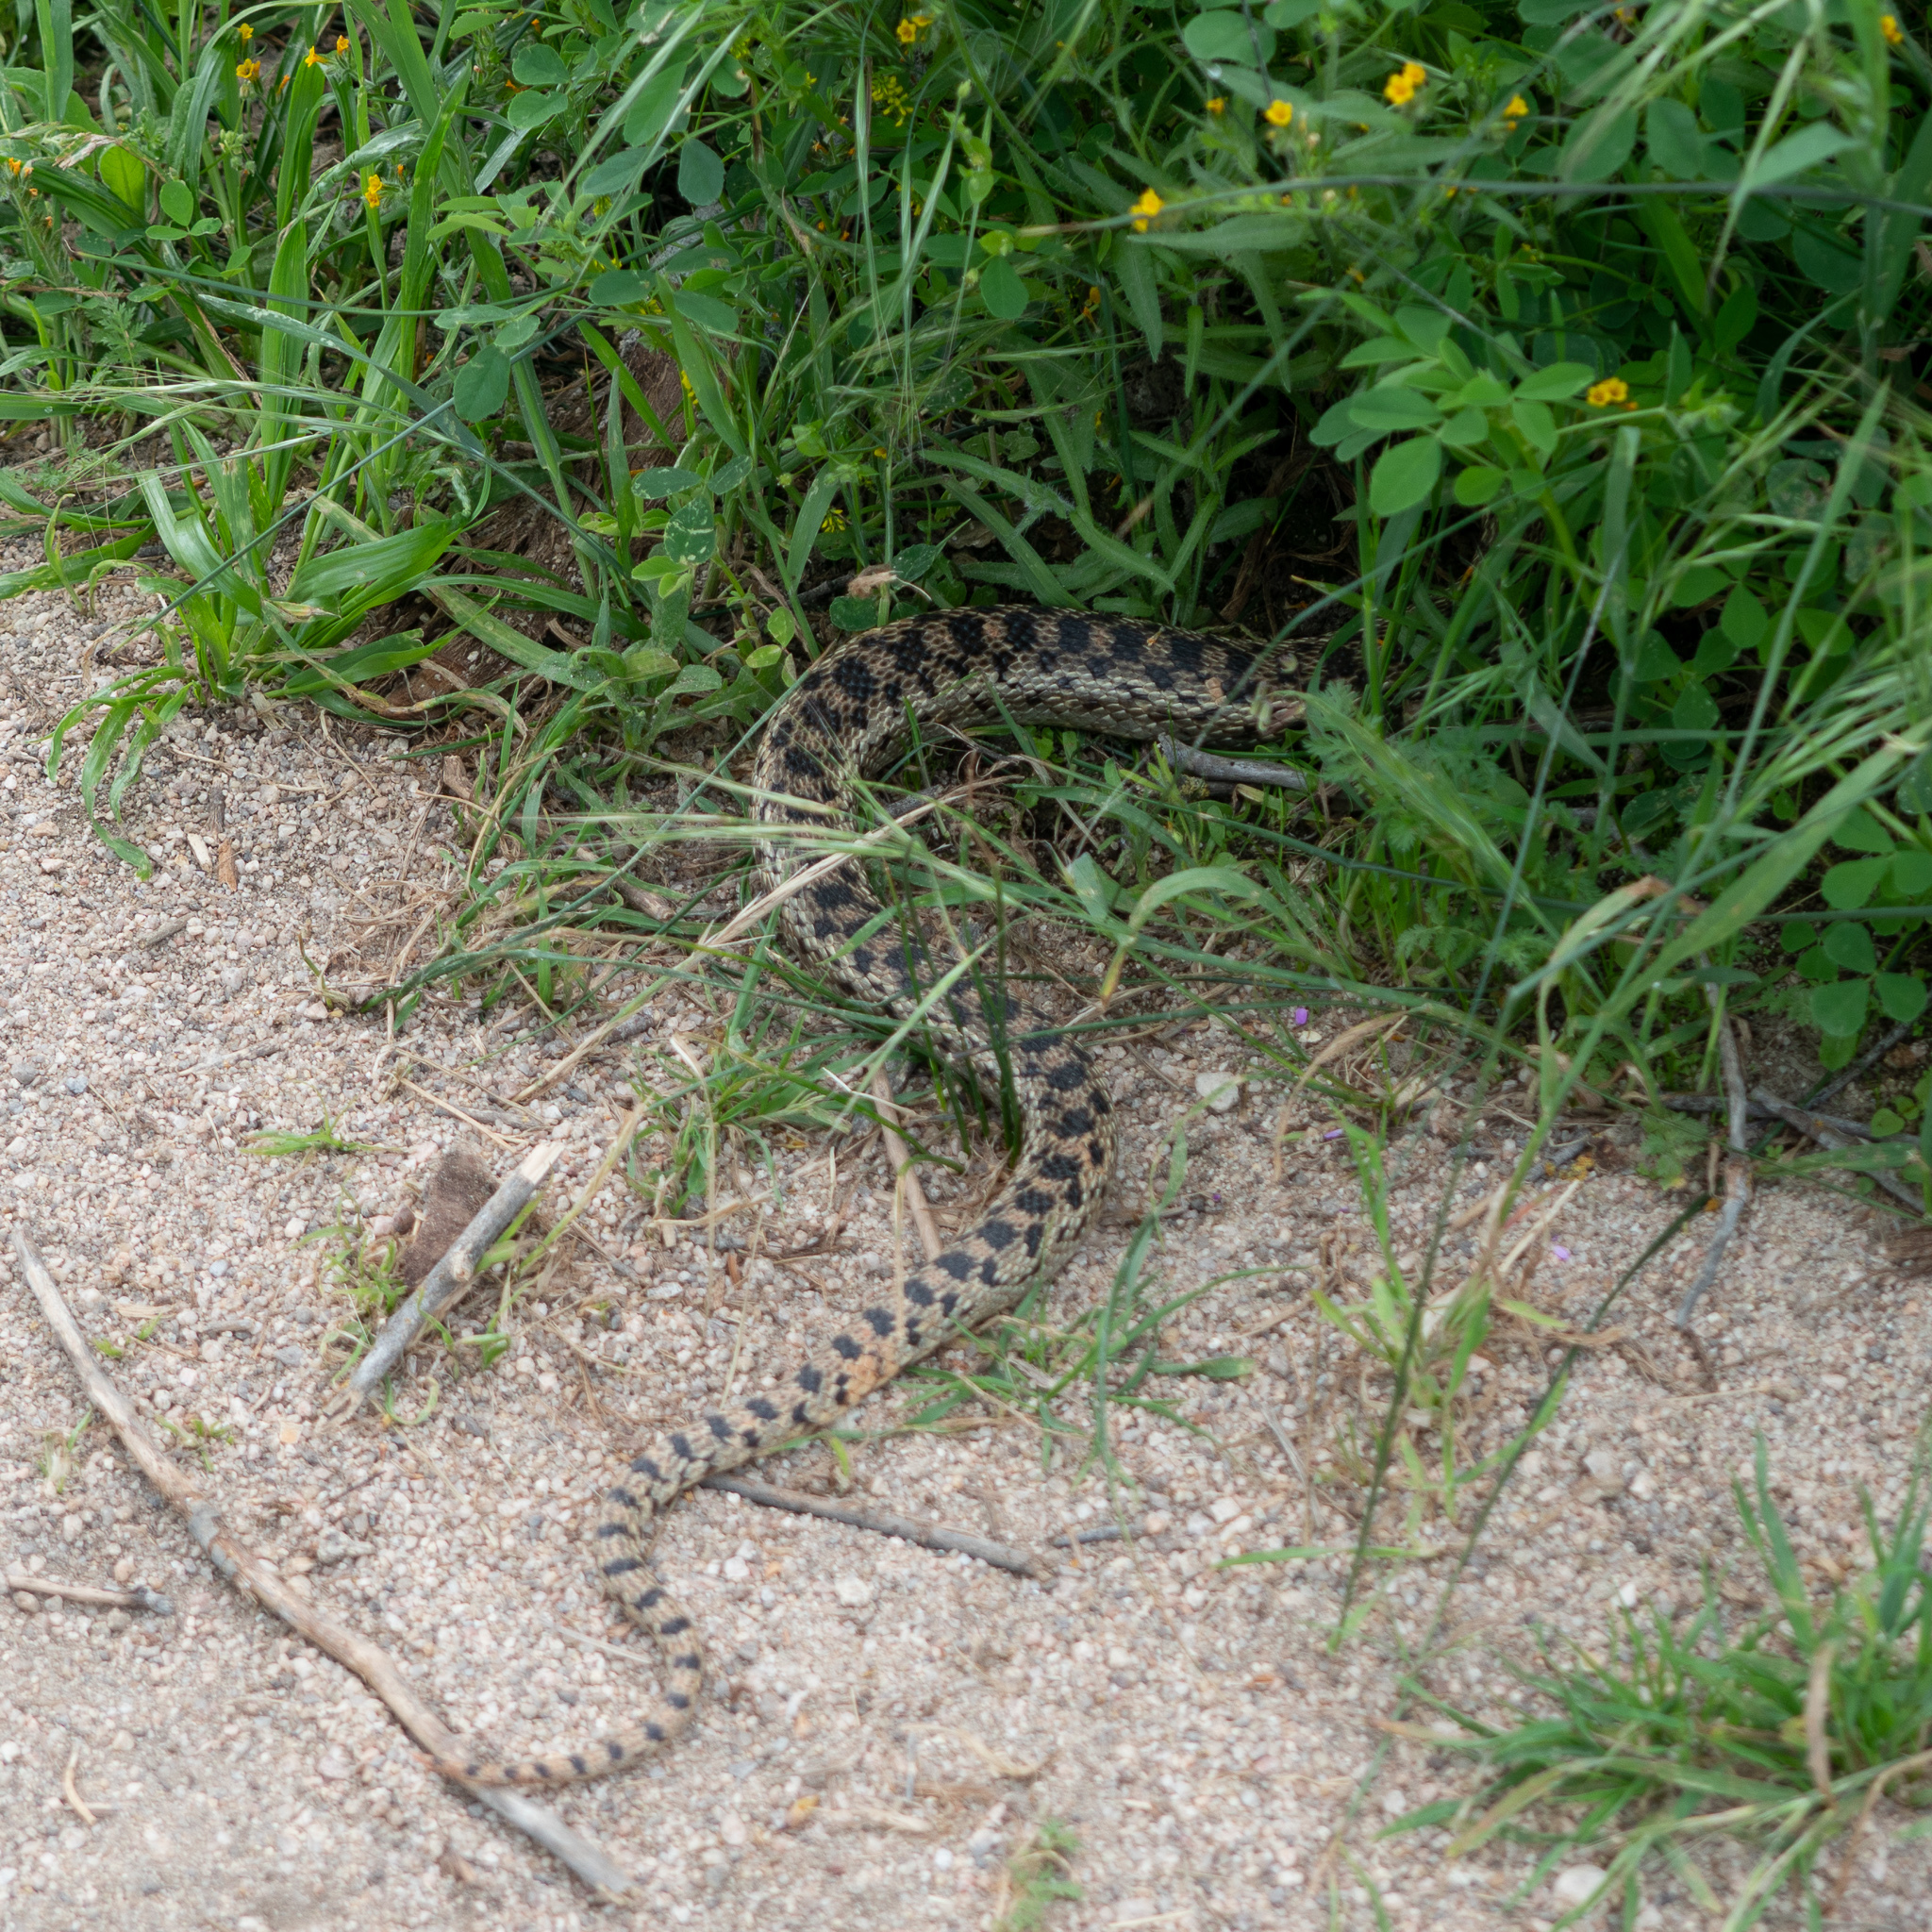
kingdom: Animalia
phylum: Chordata
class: Squamata
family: Colubridae
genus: Pituophis
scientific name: Pituophis catenifer
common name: Gopher snake
